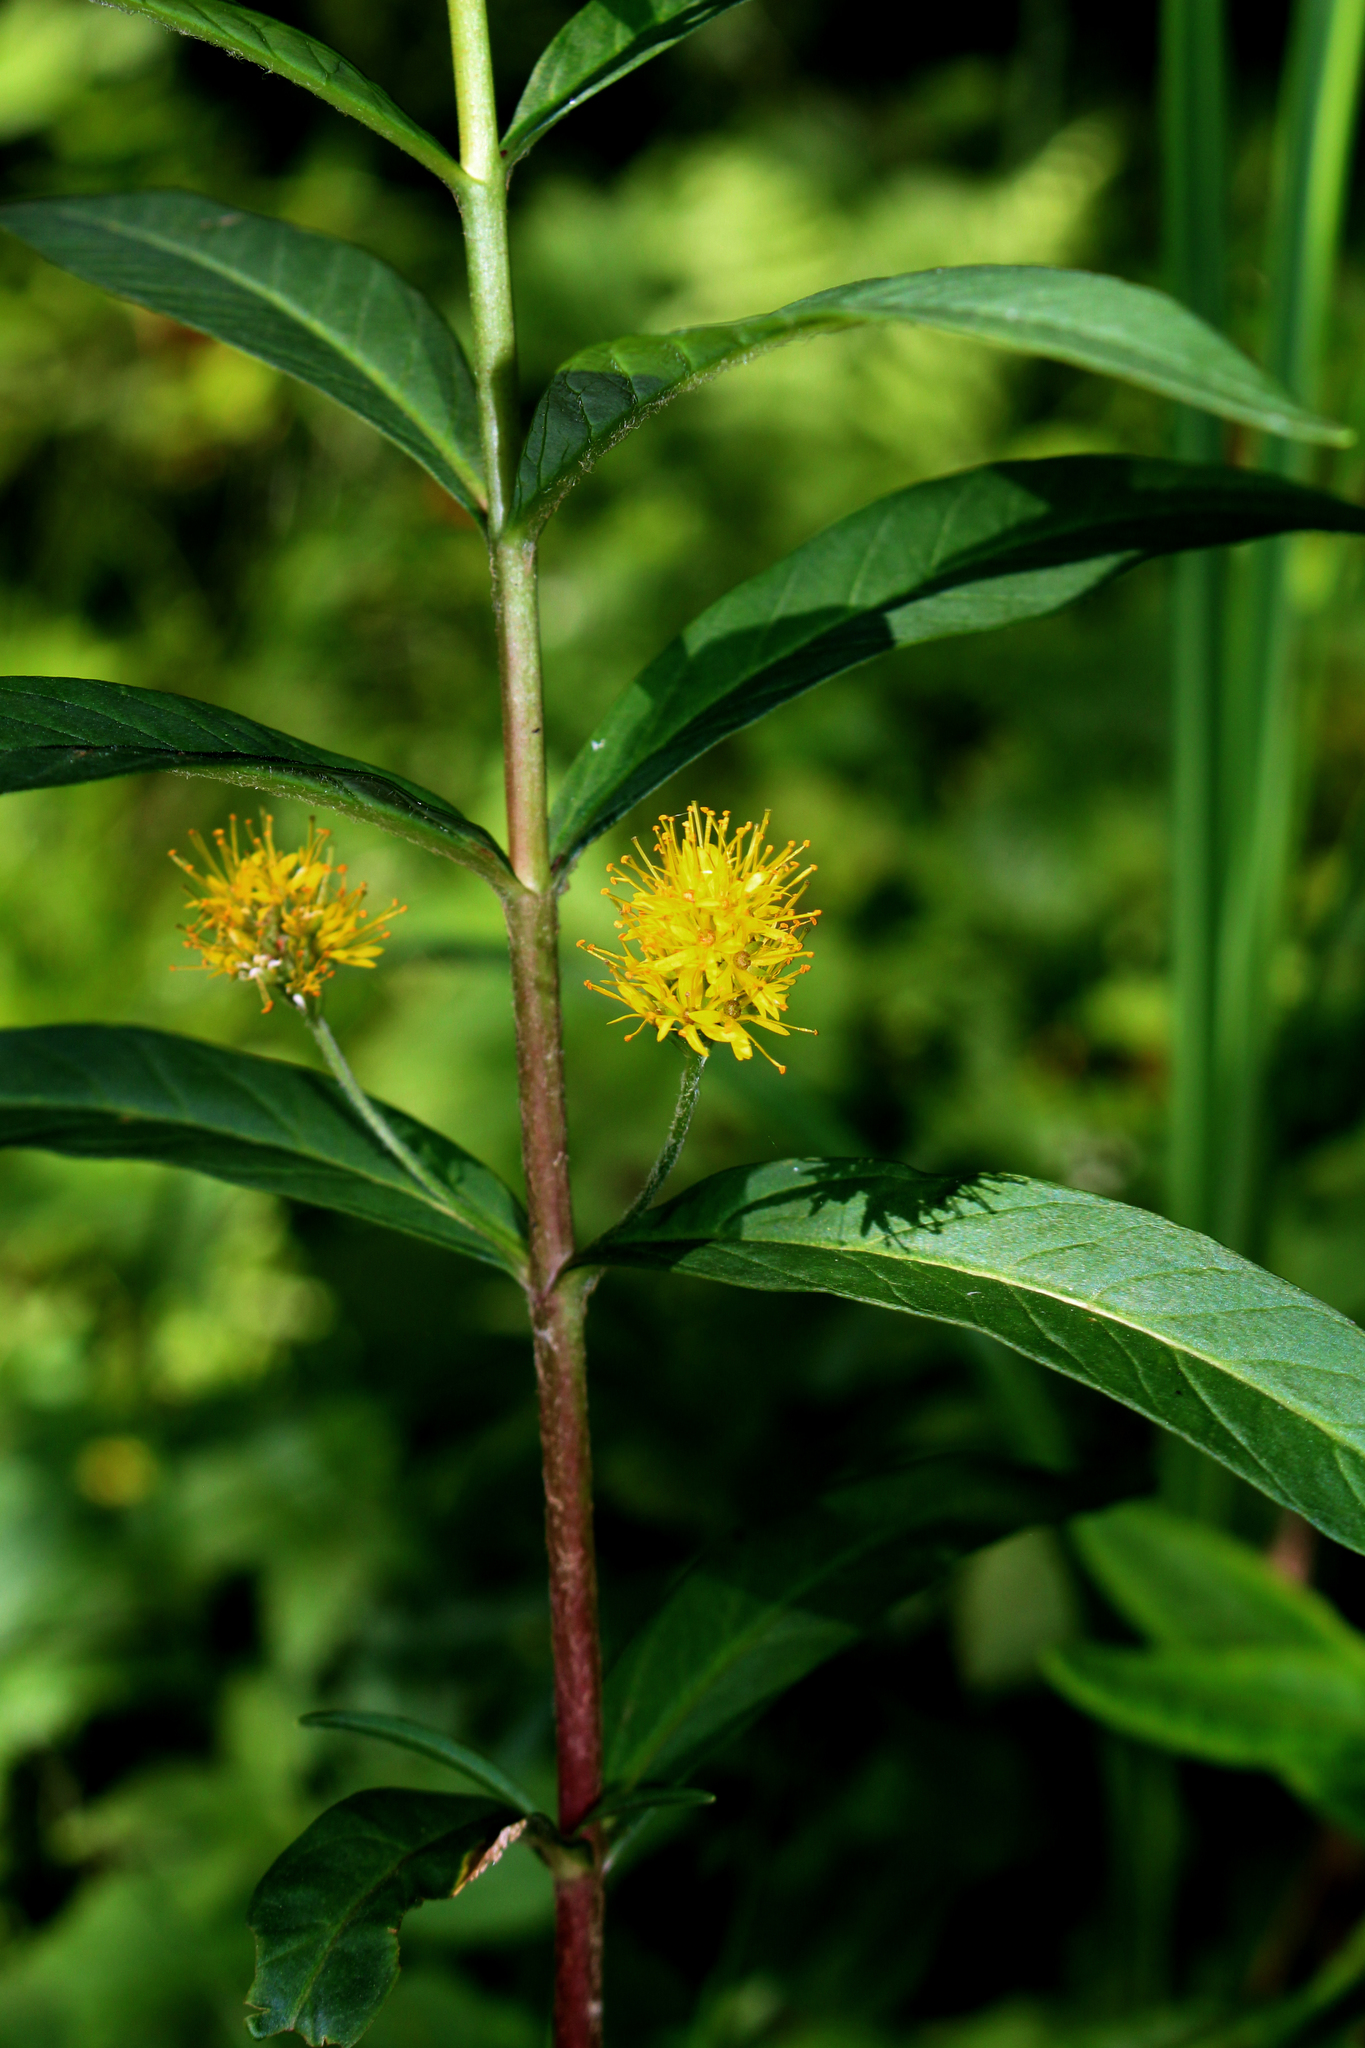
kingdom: Plantae
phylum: Tracheophyta
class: Magnoliopsida
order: Ericales
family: Primulaceae
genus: Lysimachia
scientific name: Lysimachia thyrsiflora
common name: Tufted loosestrife
